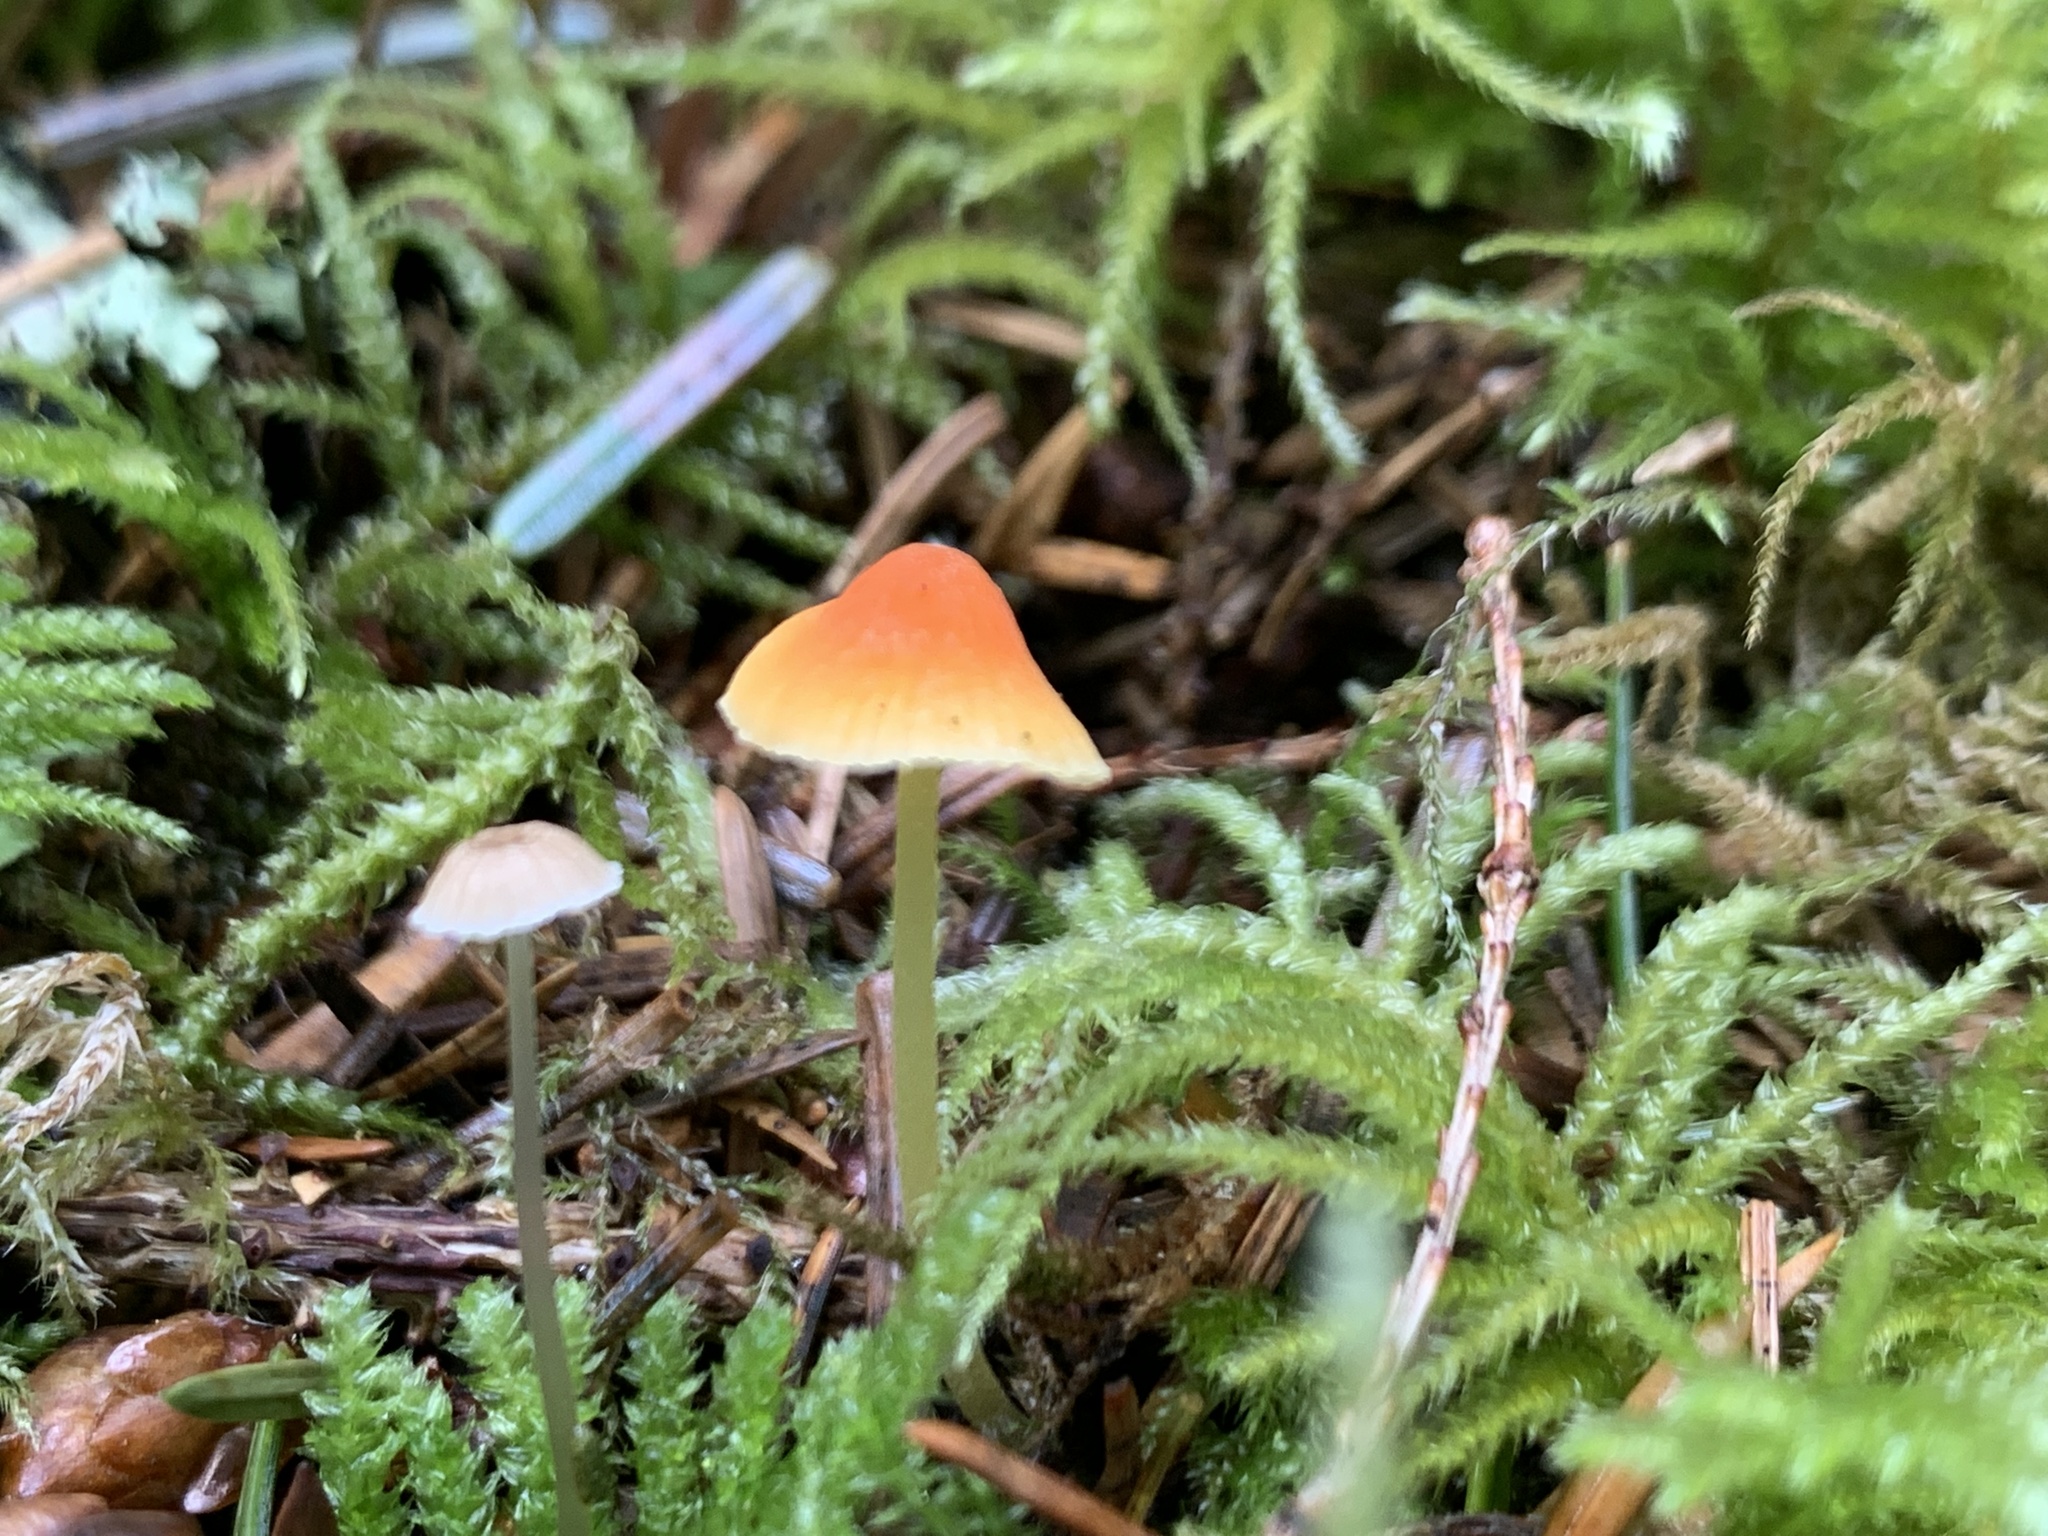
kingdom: Fungi
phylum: Basidiomycota
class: Agaricomycetes
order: Agaricales
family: Mycenaceae
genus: Atheniella
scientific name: Atheniella aurantiidisca
